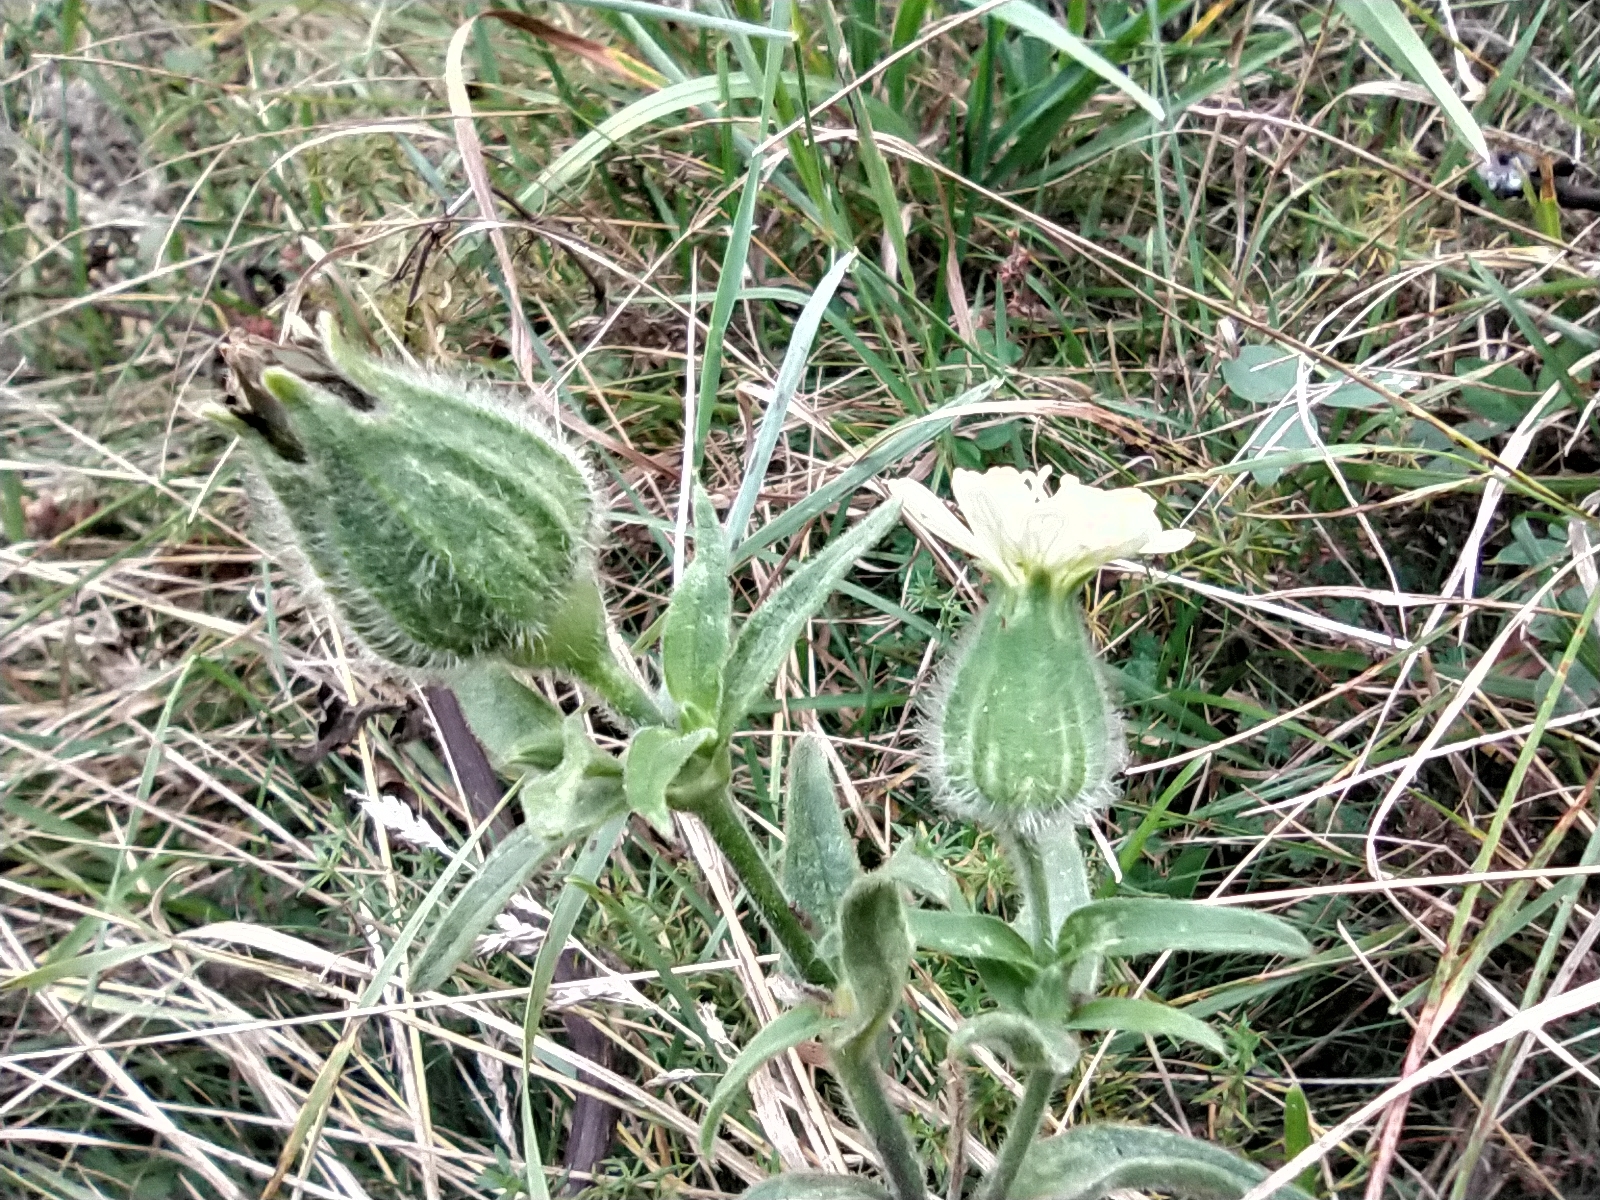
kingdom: Plantae
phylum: Tracheophyta
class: Magnoliopsida
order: Caryophyllales
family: Caryophyllaceae
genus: Silene
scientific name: Silene latifolia
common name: White campion
